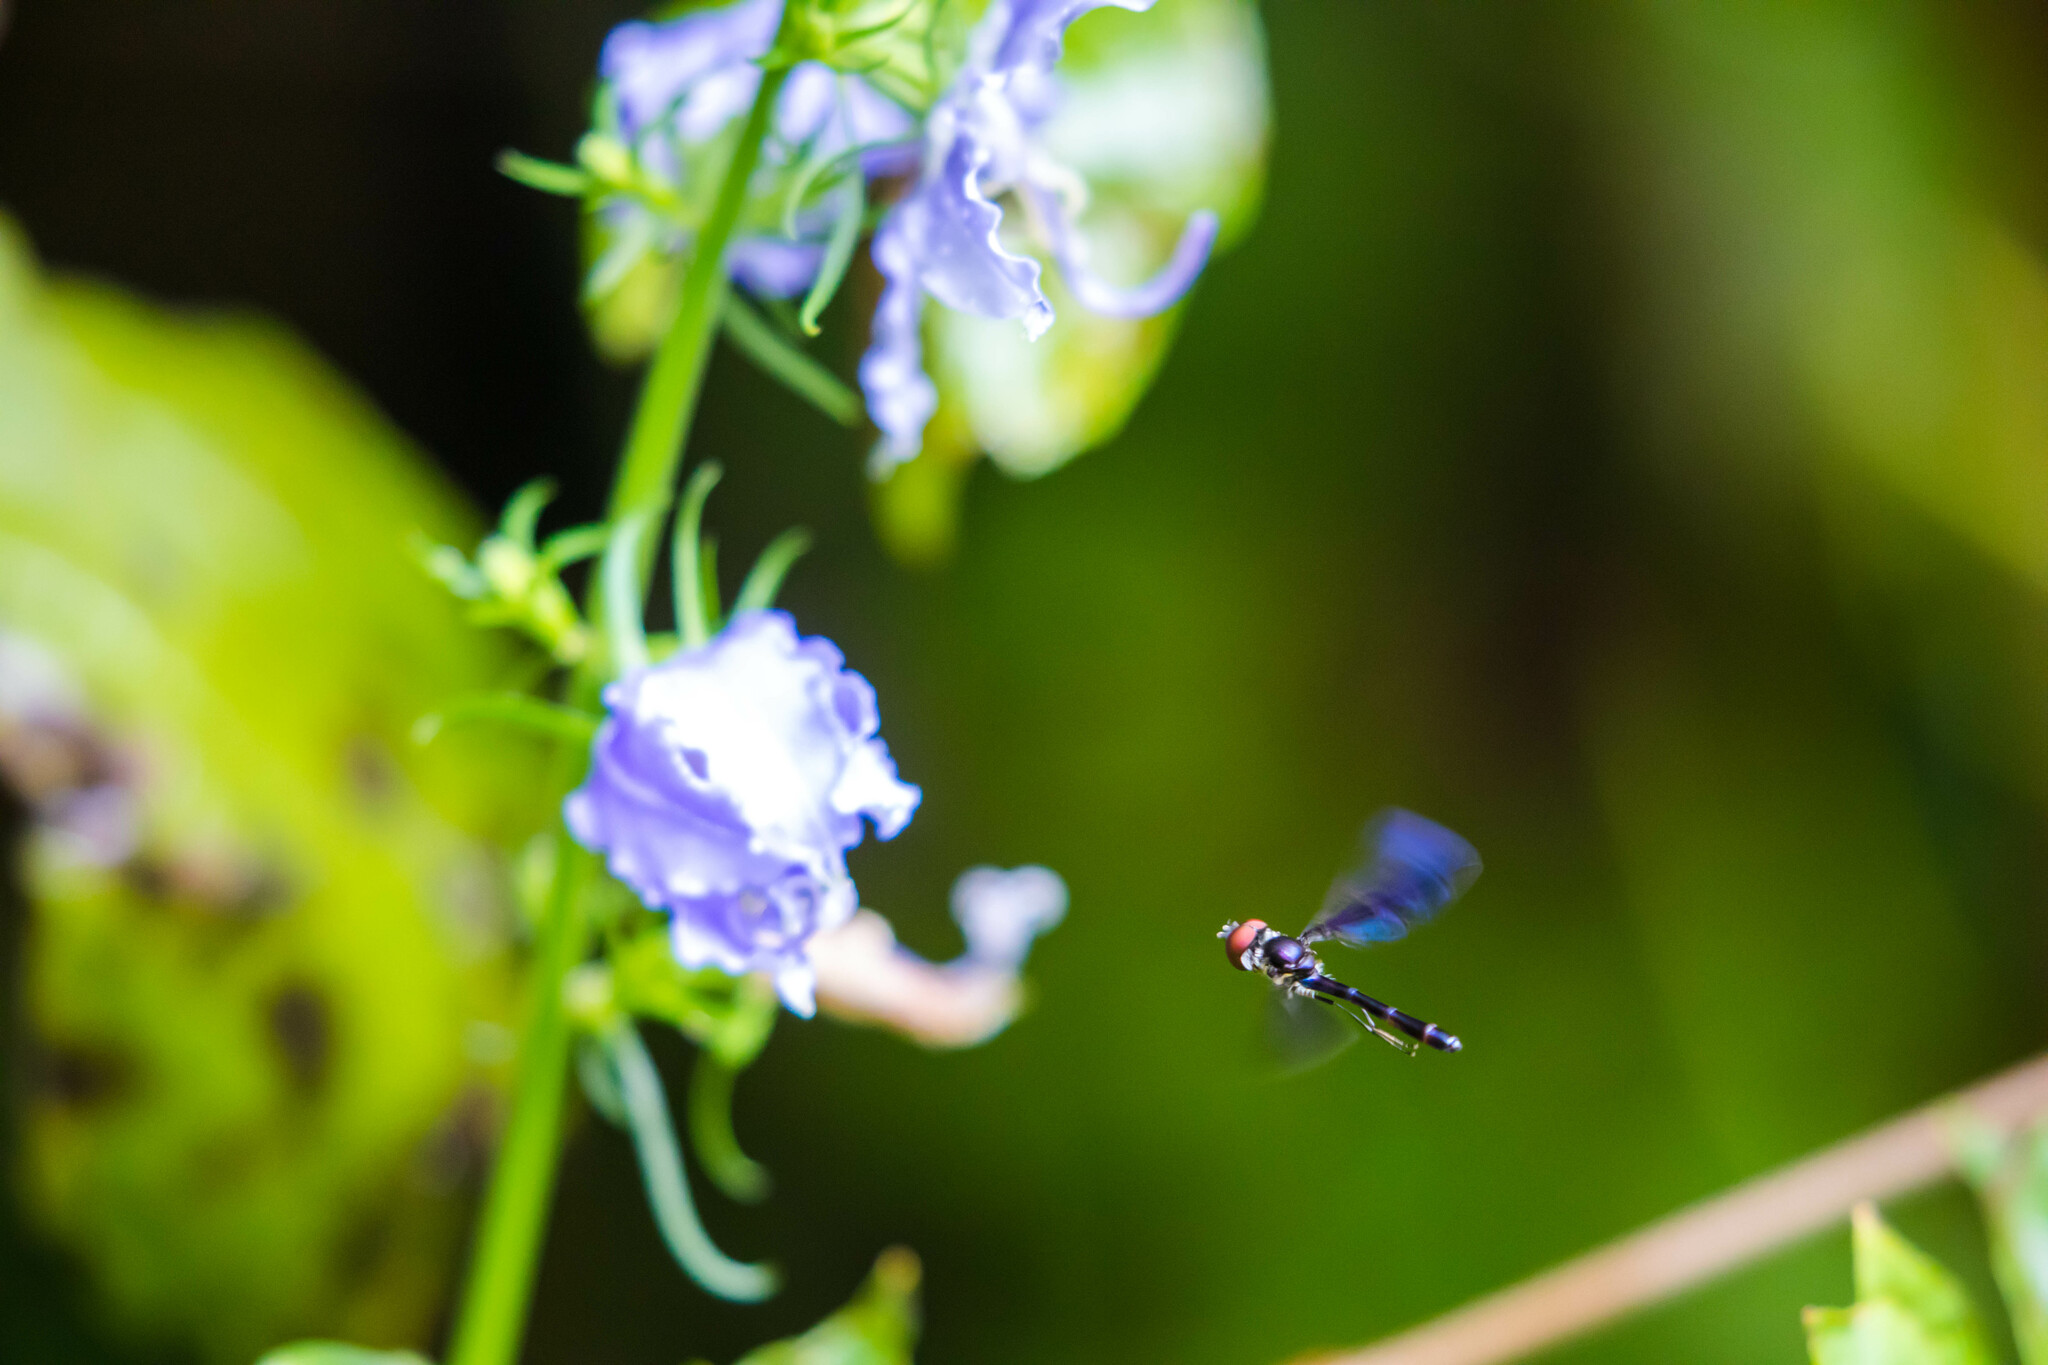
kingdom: Animalia
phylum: Arthropoda
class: Insecta
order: Diptera
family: Syrphidae
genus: Ocyptamus
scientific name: Ocyptamus fuscipennis
